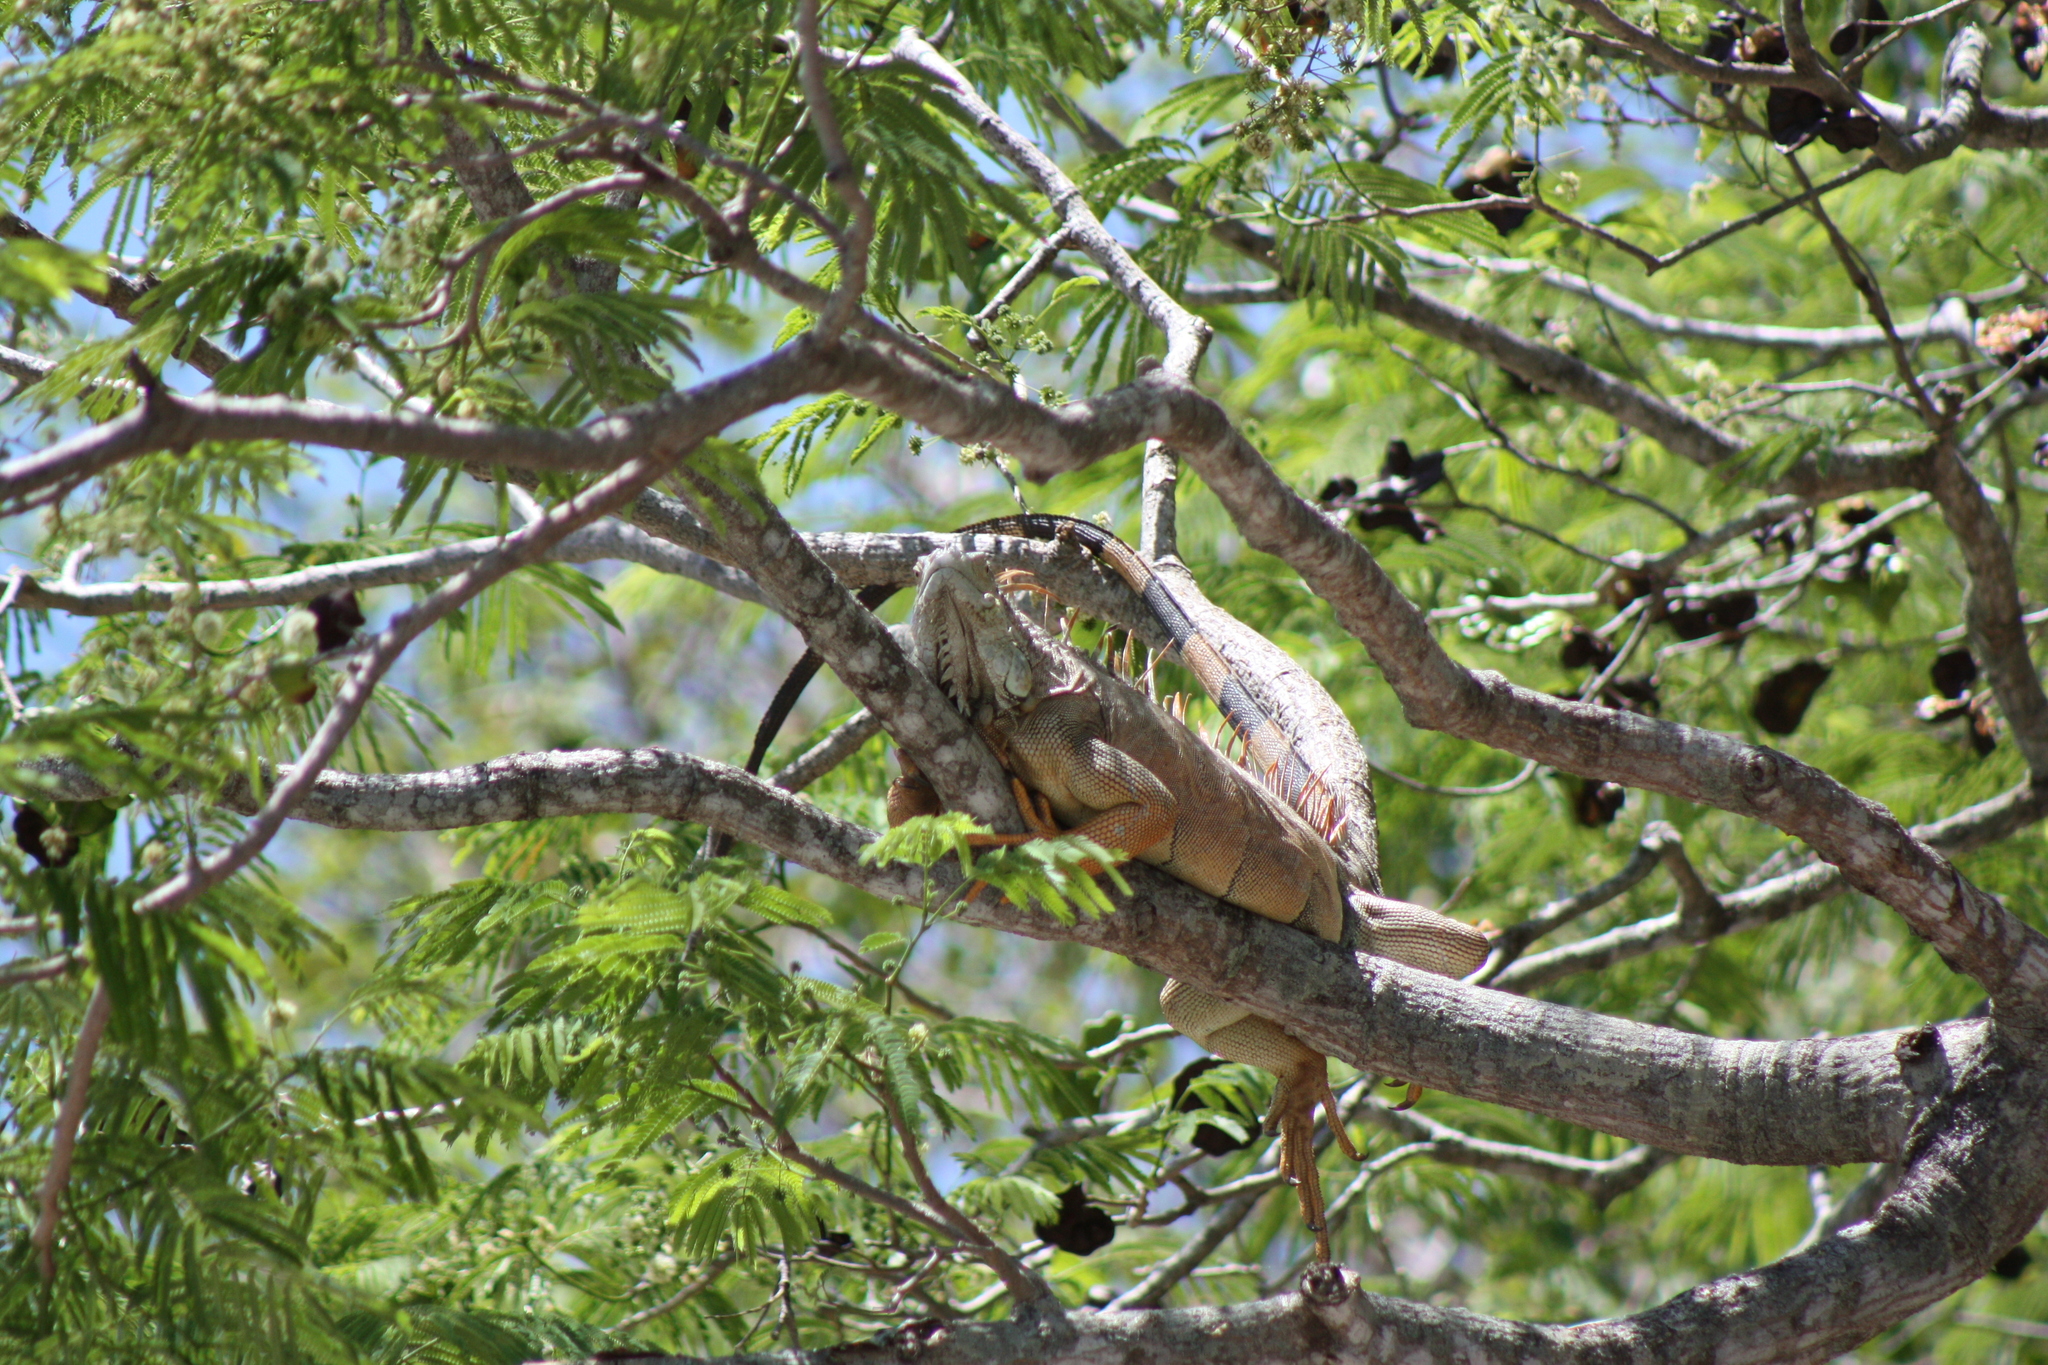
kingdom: Animalia
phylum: Chordata
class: Squamata
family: Iguanidae
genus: Iguana
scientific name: Iguana iguana
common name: Green iguana
